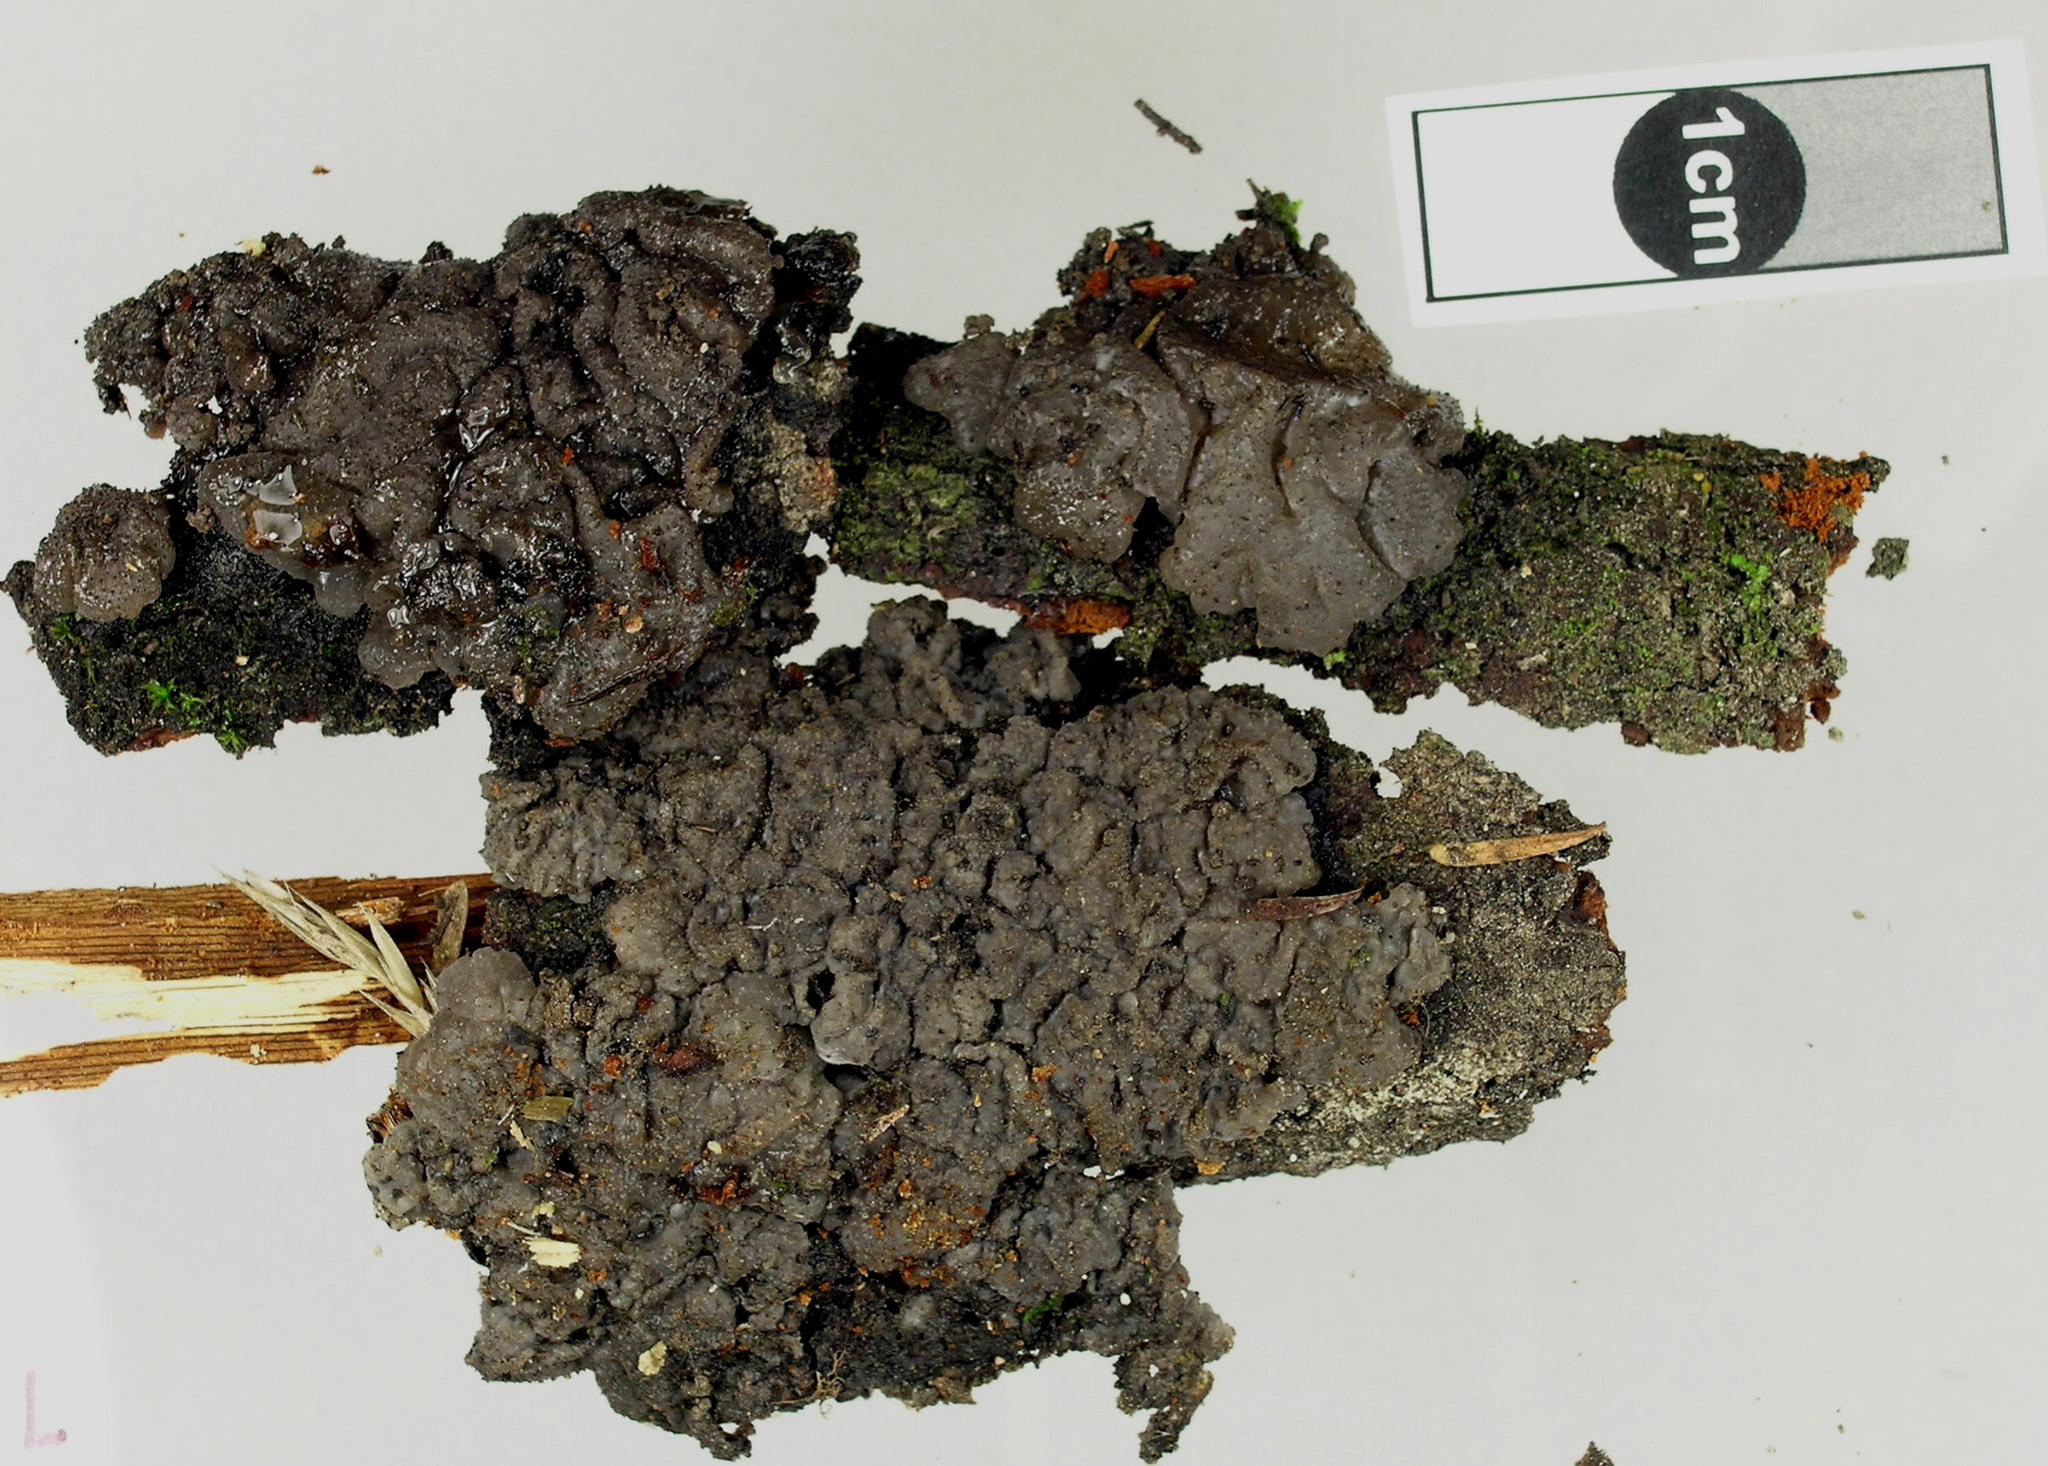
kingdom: Fungi
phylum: Basidiomycota
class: Agaricomycetes
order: Auriculariales
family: Auriculariaceae
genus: Tremellochaete
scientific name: Tremellochaete
